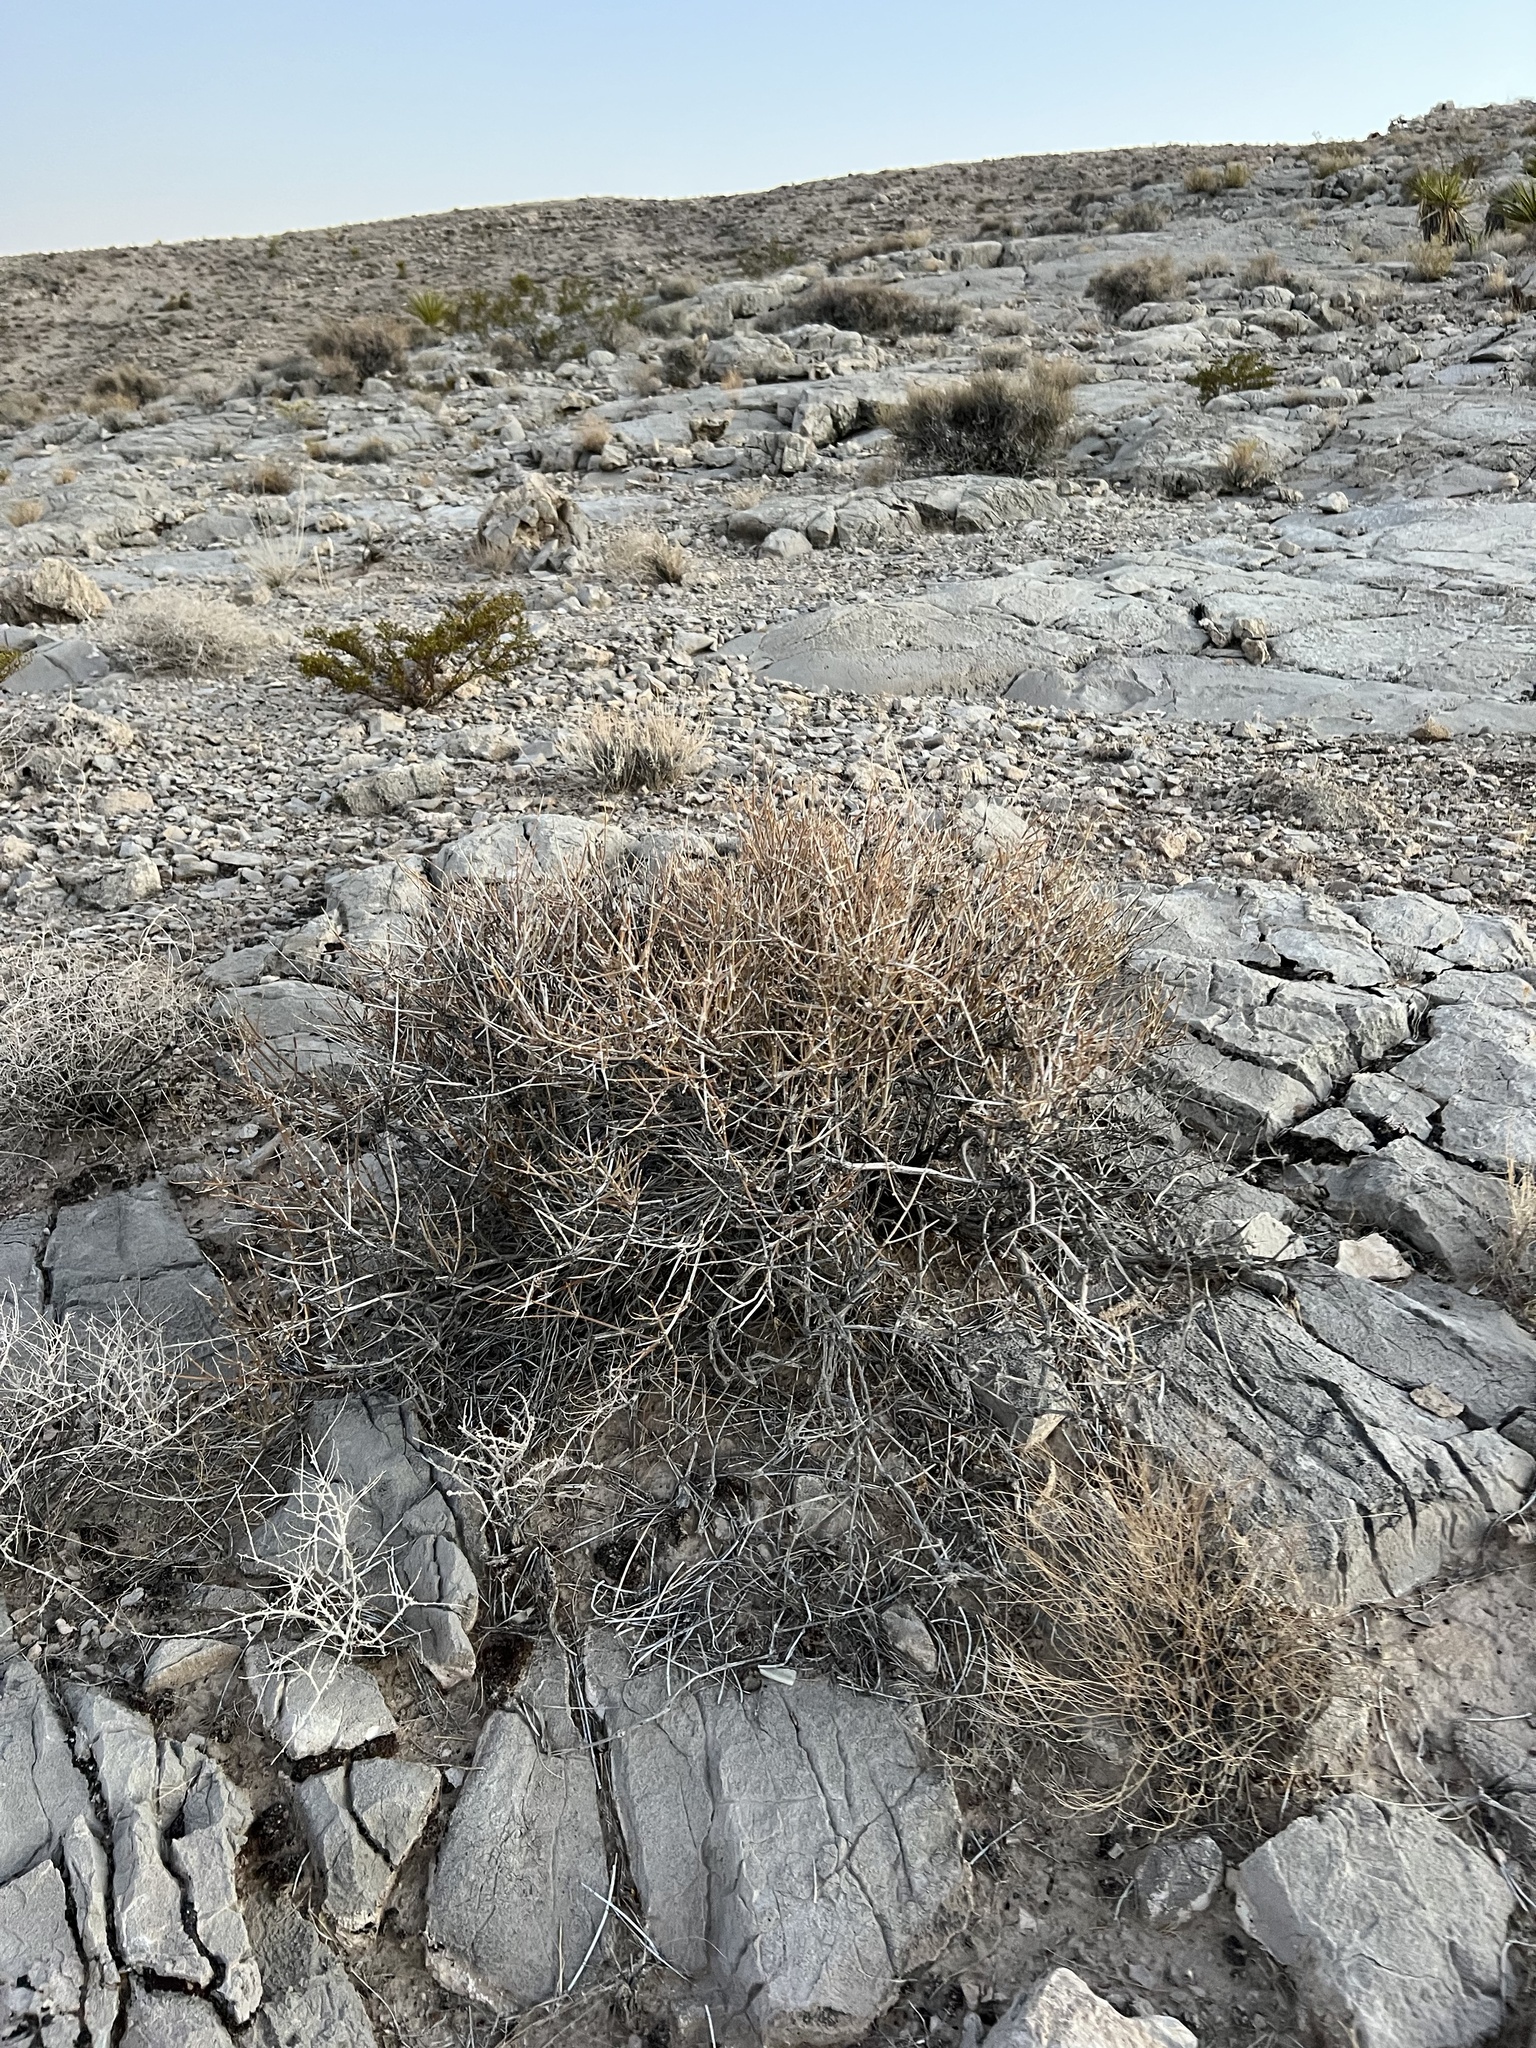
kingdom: Plantae
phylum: Tracheophyta
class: Gnetopsida
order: Ephedrales
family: Ephedraceae
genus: Ephedra
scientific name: Ephedra nevadensis
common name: Gray ephedra
